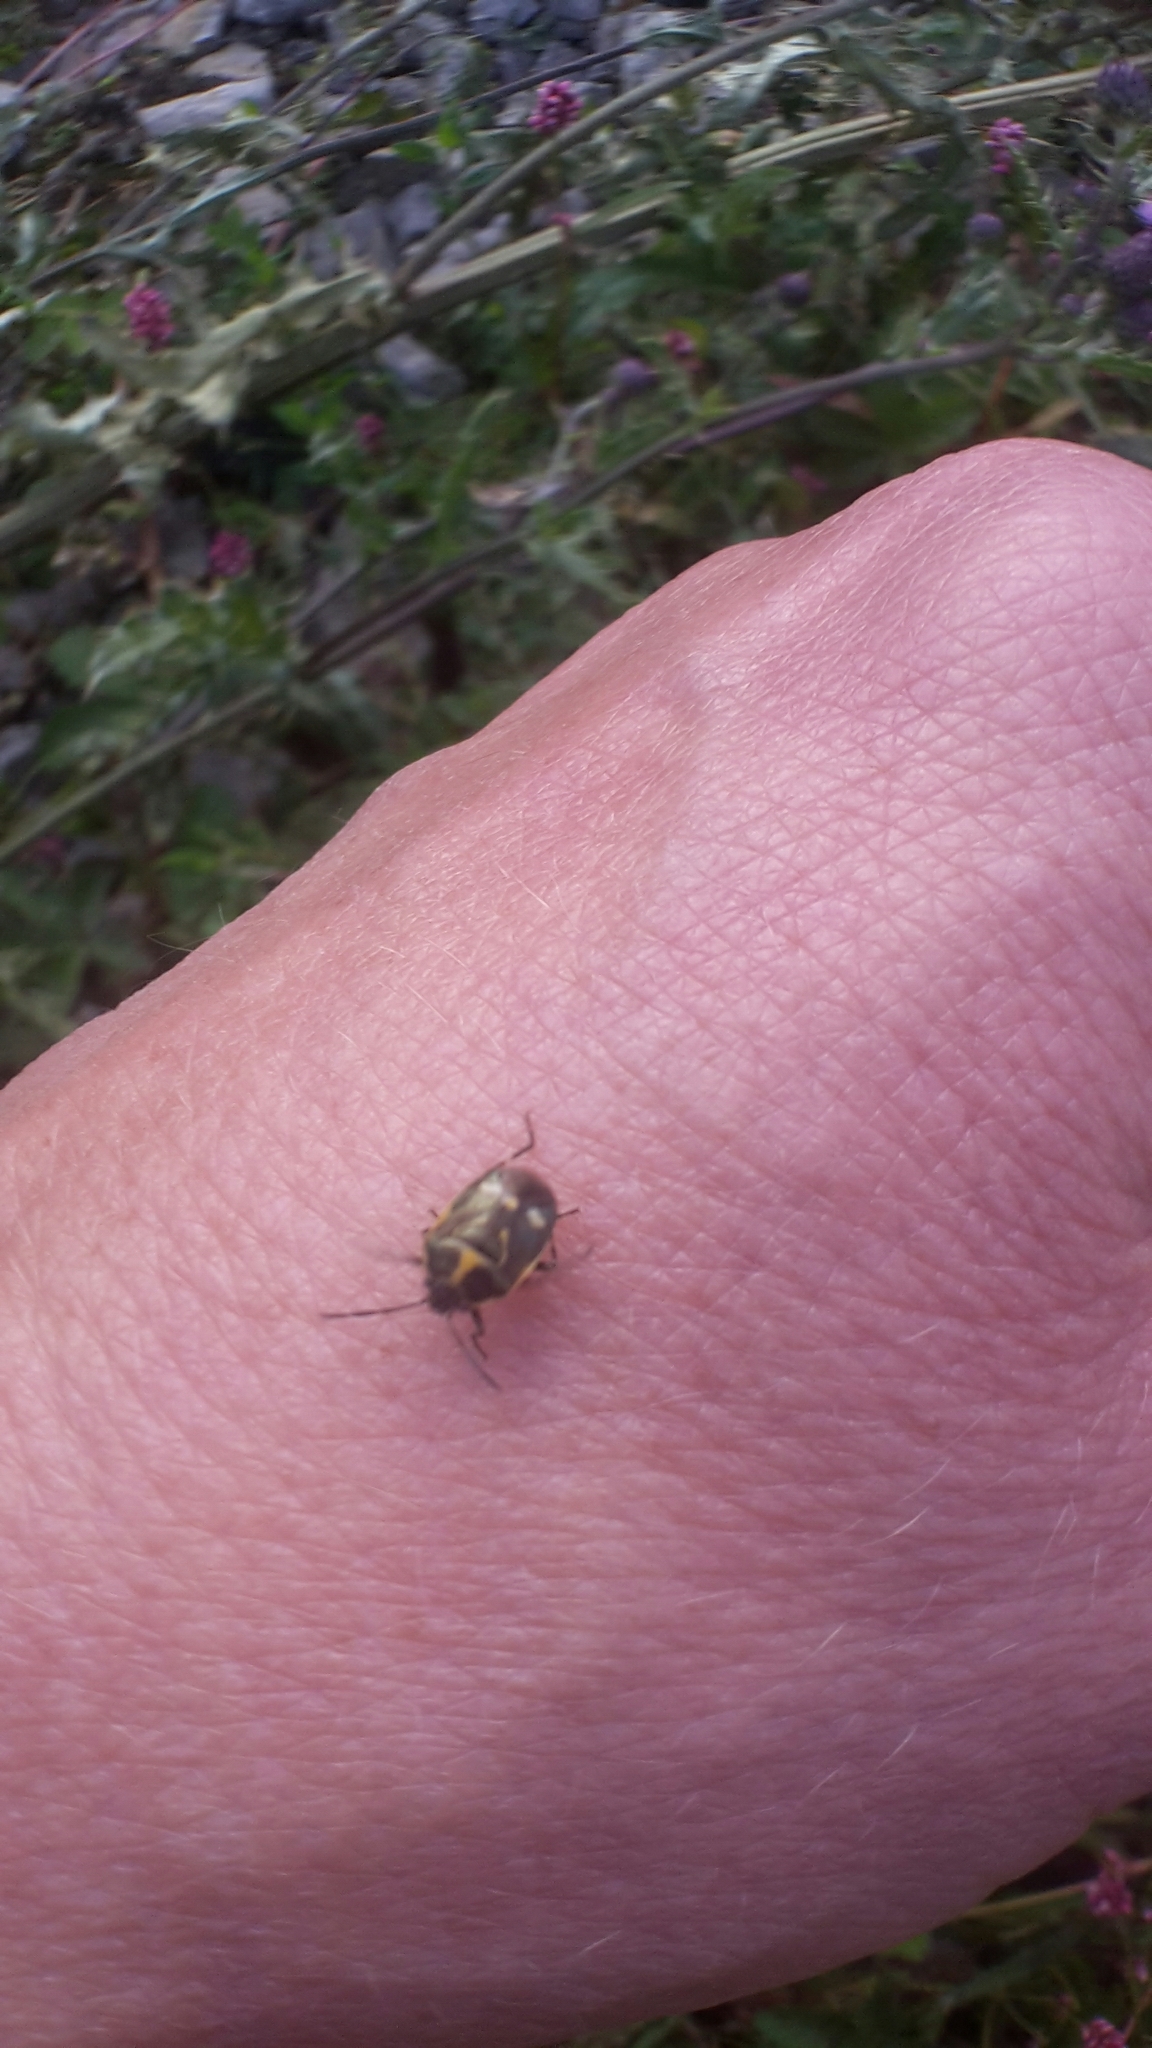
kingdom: Animalia
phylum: Arthropoda
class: Insecta
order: Hemiptera
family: Pentatomidae
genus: Eurydema
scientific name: Eurydema oleracea
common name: Cabbage bug
